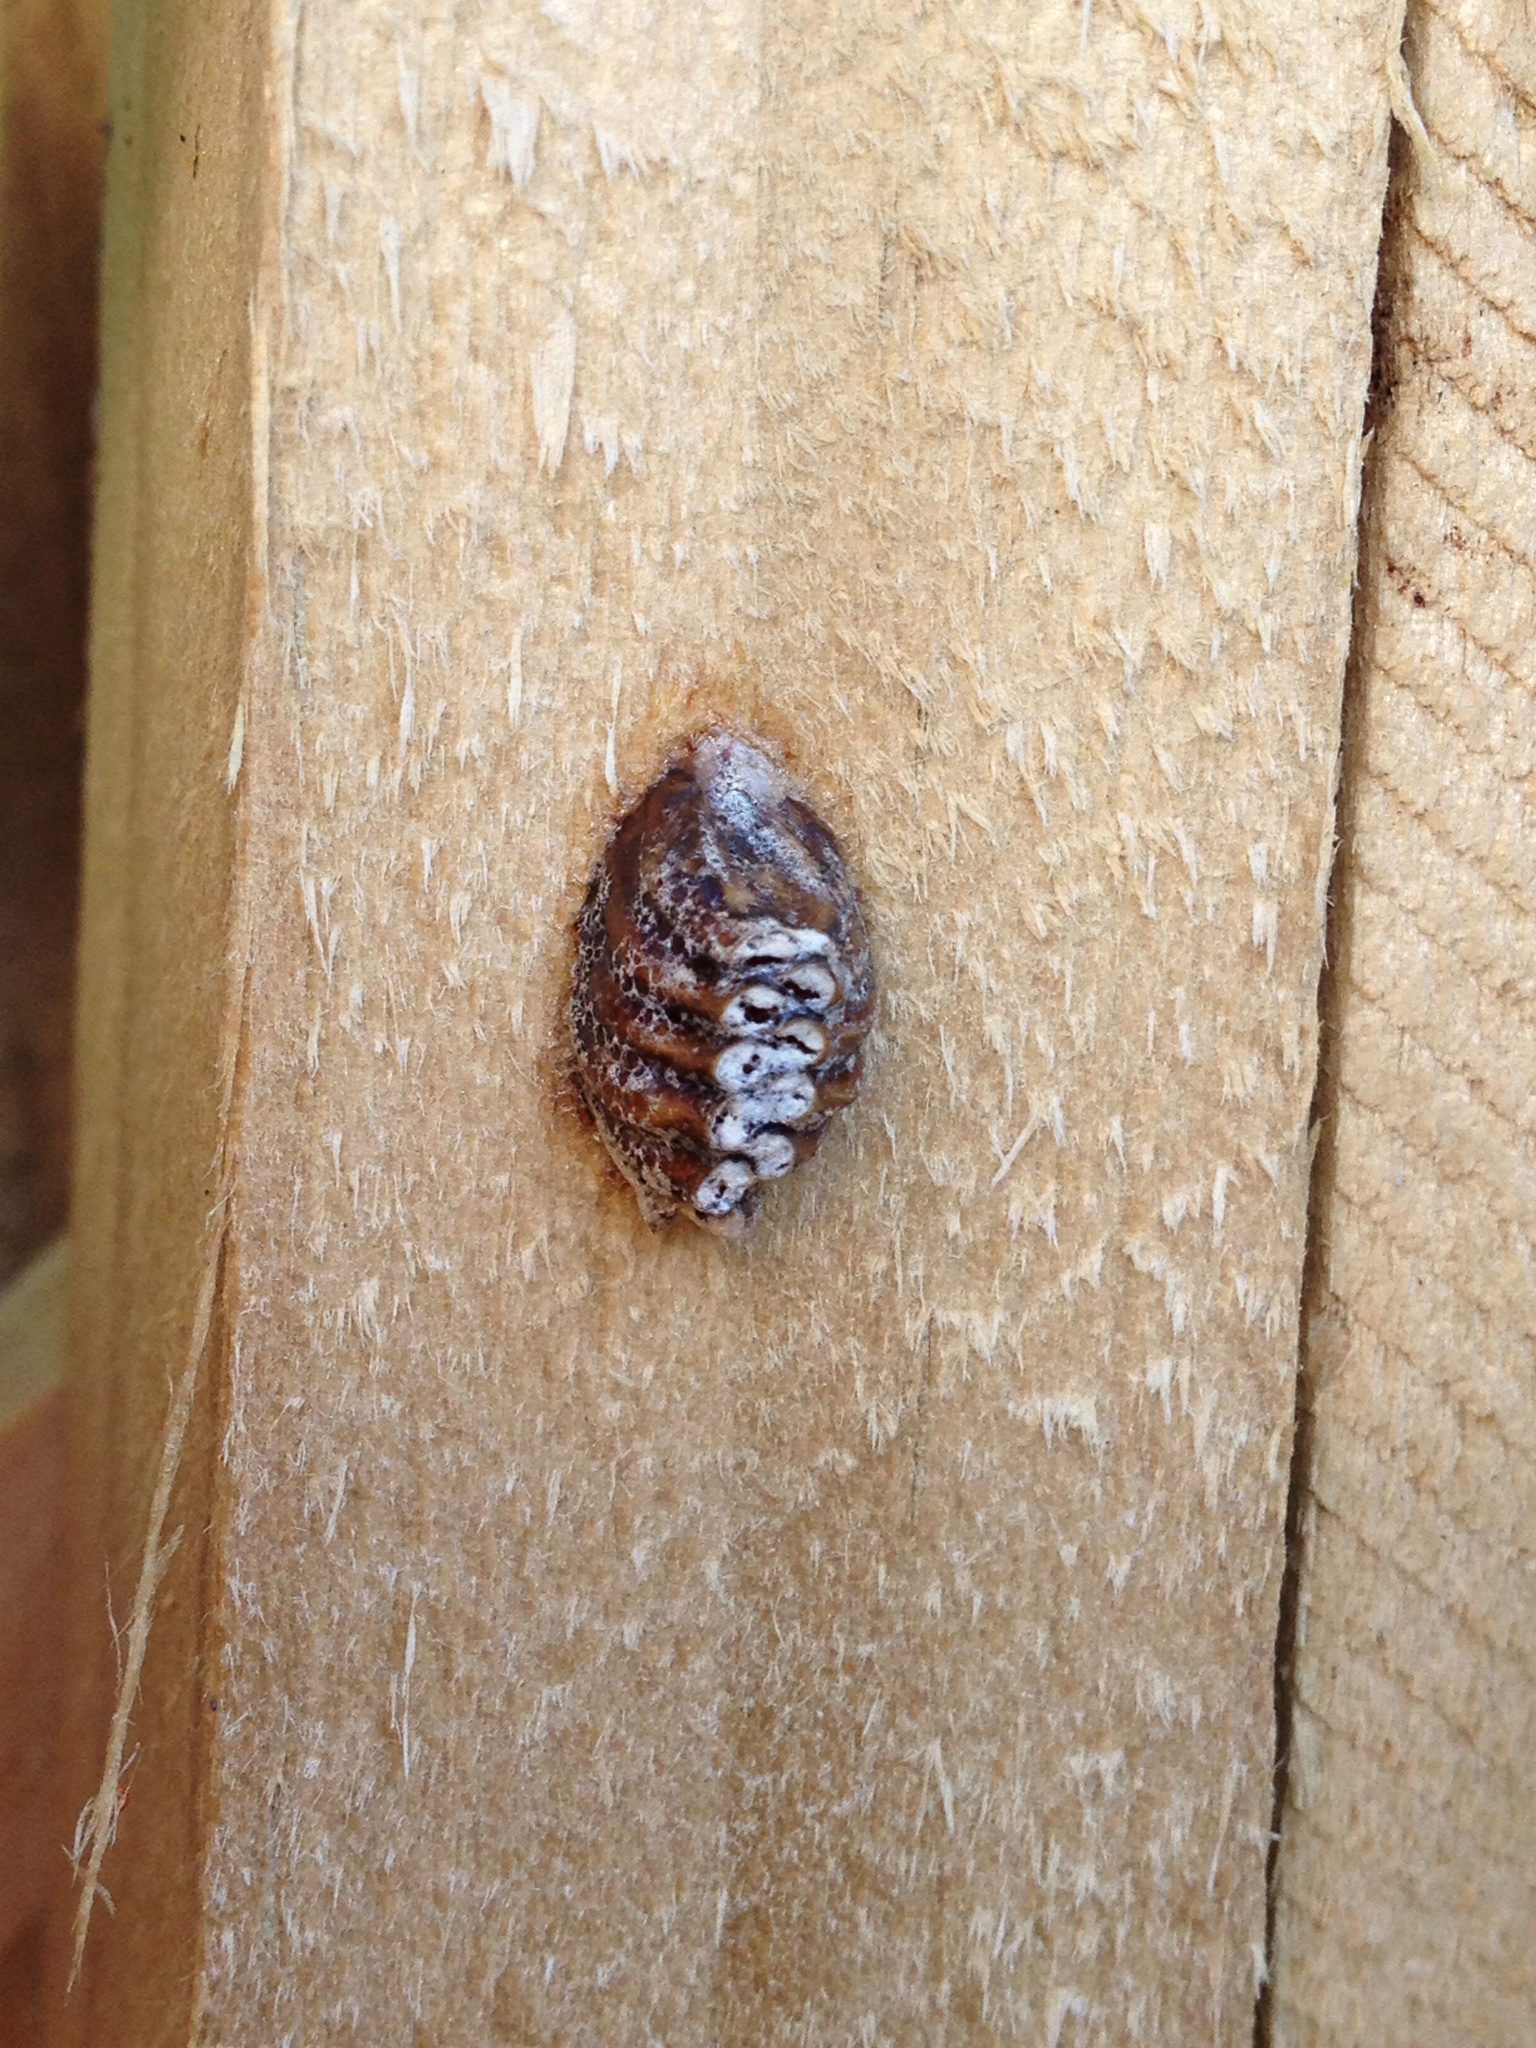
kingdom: Animalia
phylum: Arthropoda
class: Insecta
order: Mantodea
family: Mantidae
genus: Orthodera
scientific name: Orthodera novaezealandiae
